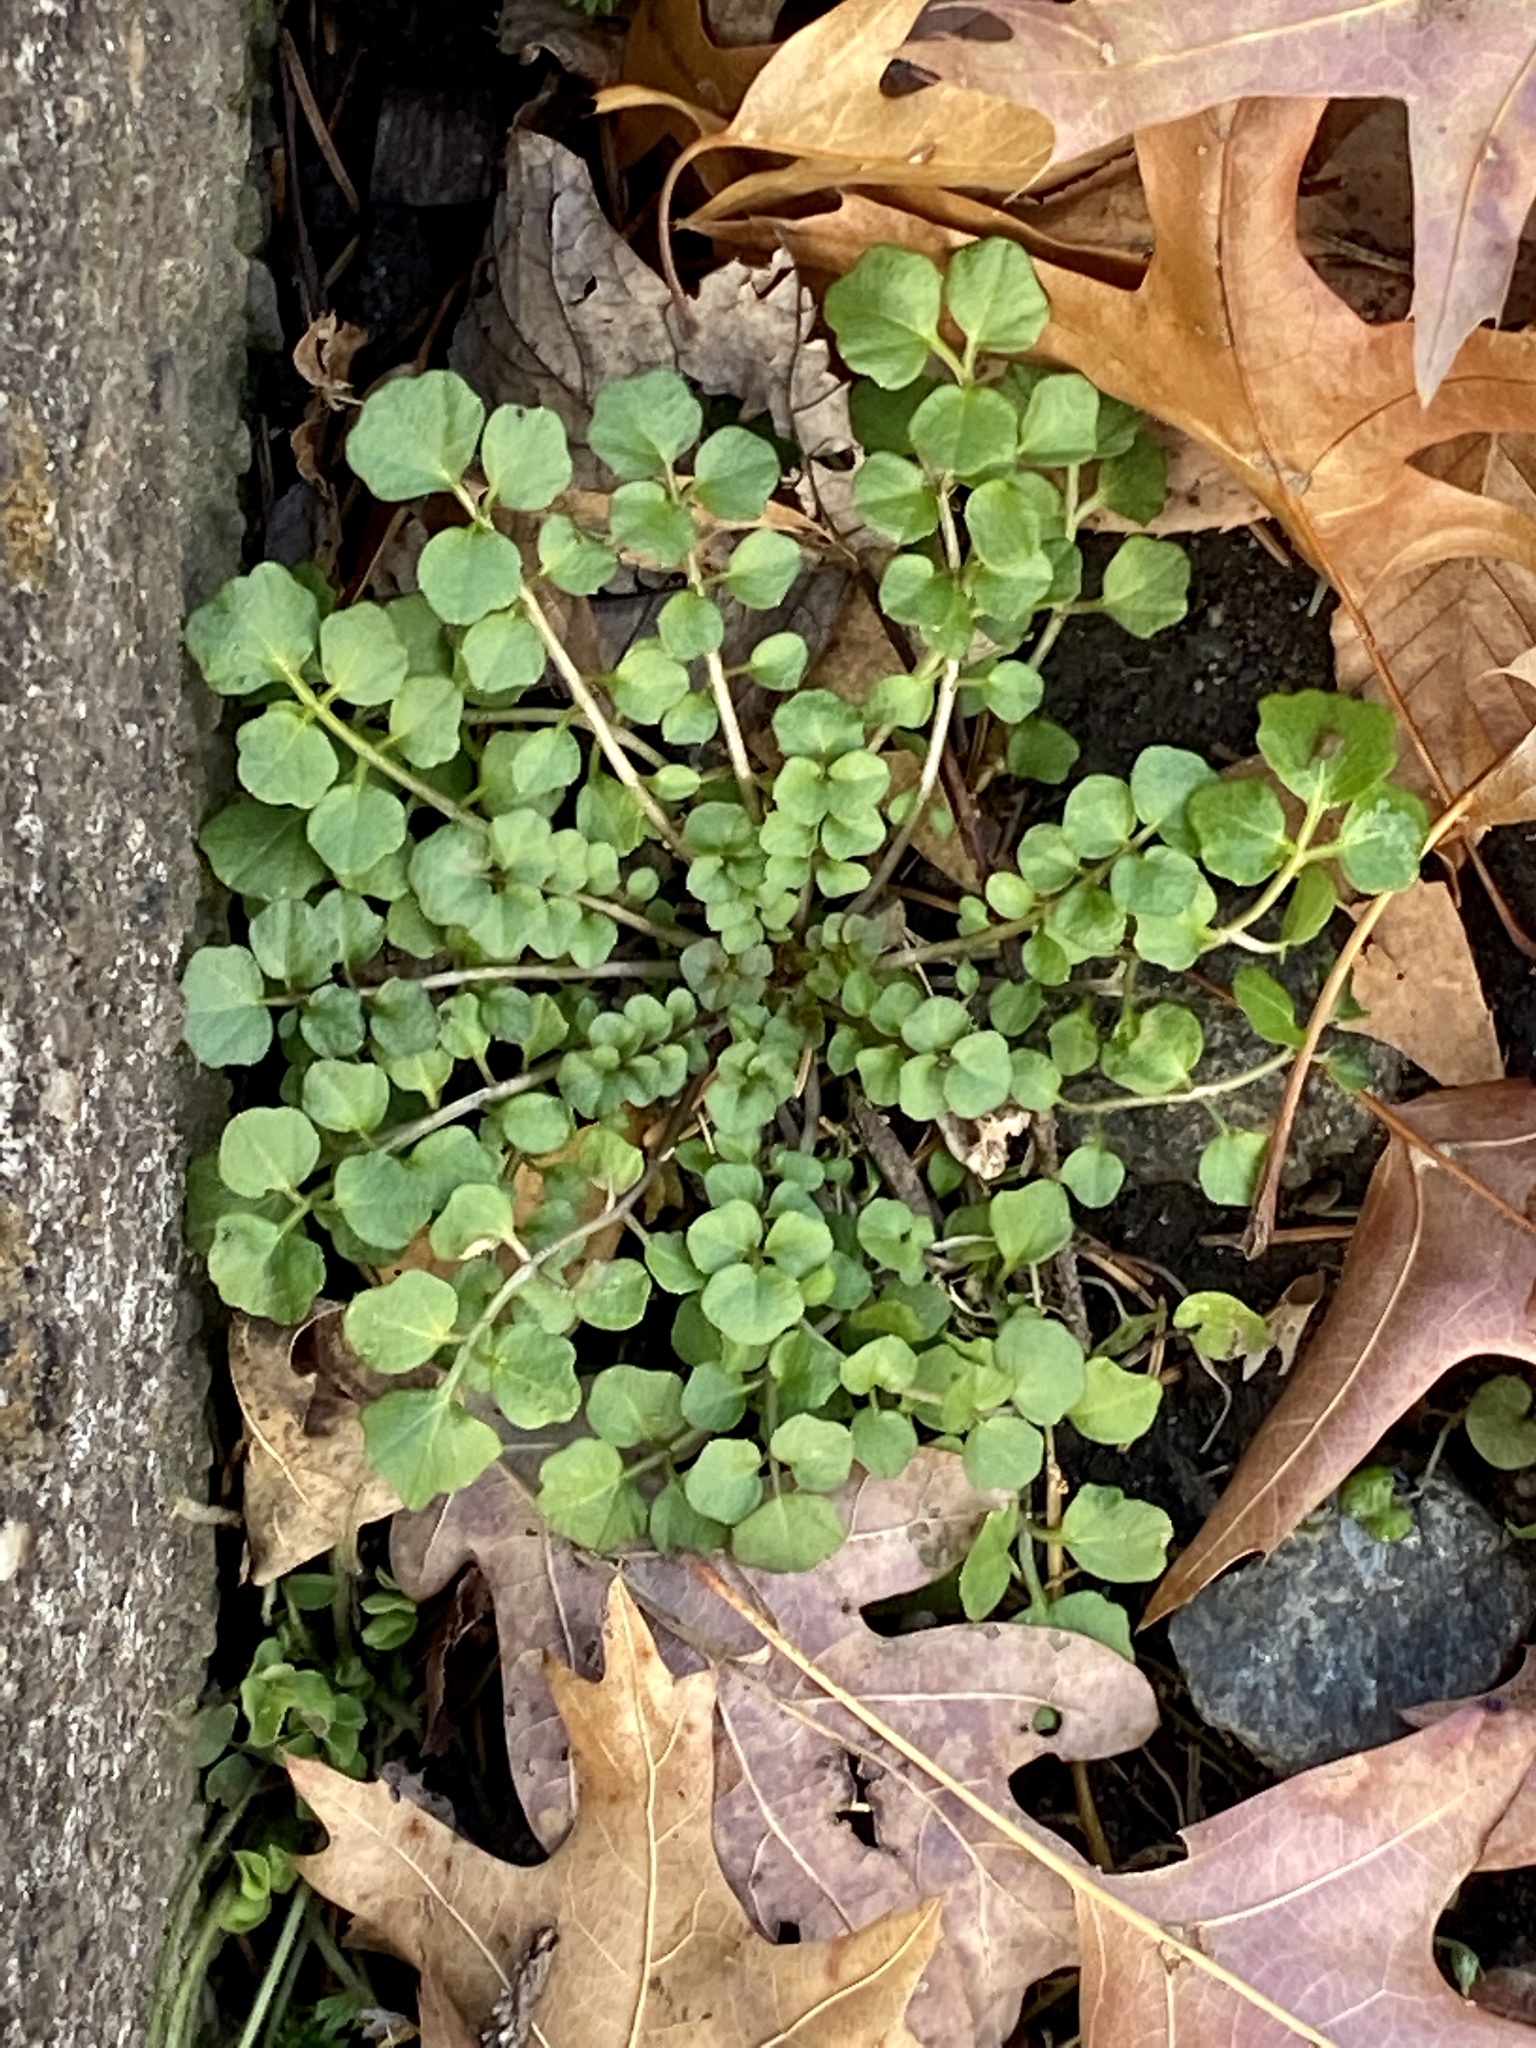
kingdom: Plantae
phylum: Tracheophyta
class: Magnoliopsida
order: Brassicales
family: Brassicaceae
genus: Cardamine
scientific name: Cardamine hirsuta
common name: Hairy bittercress
